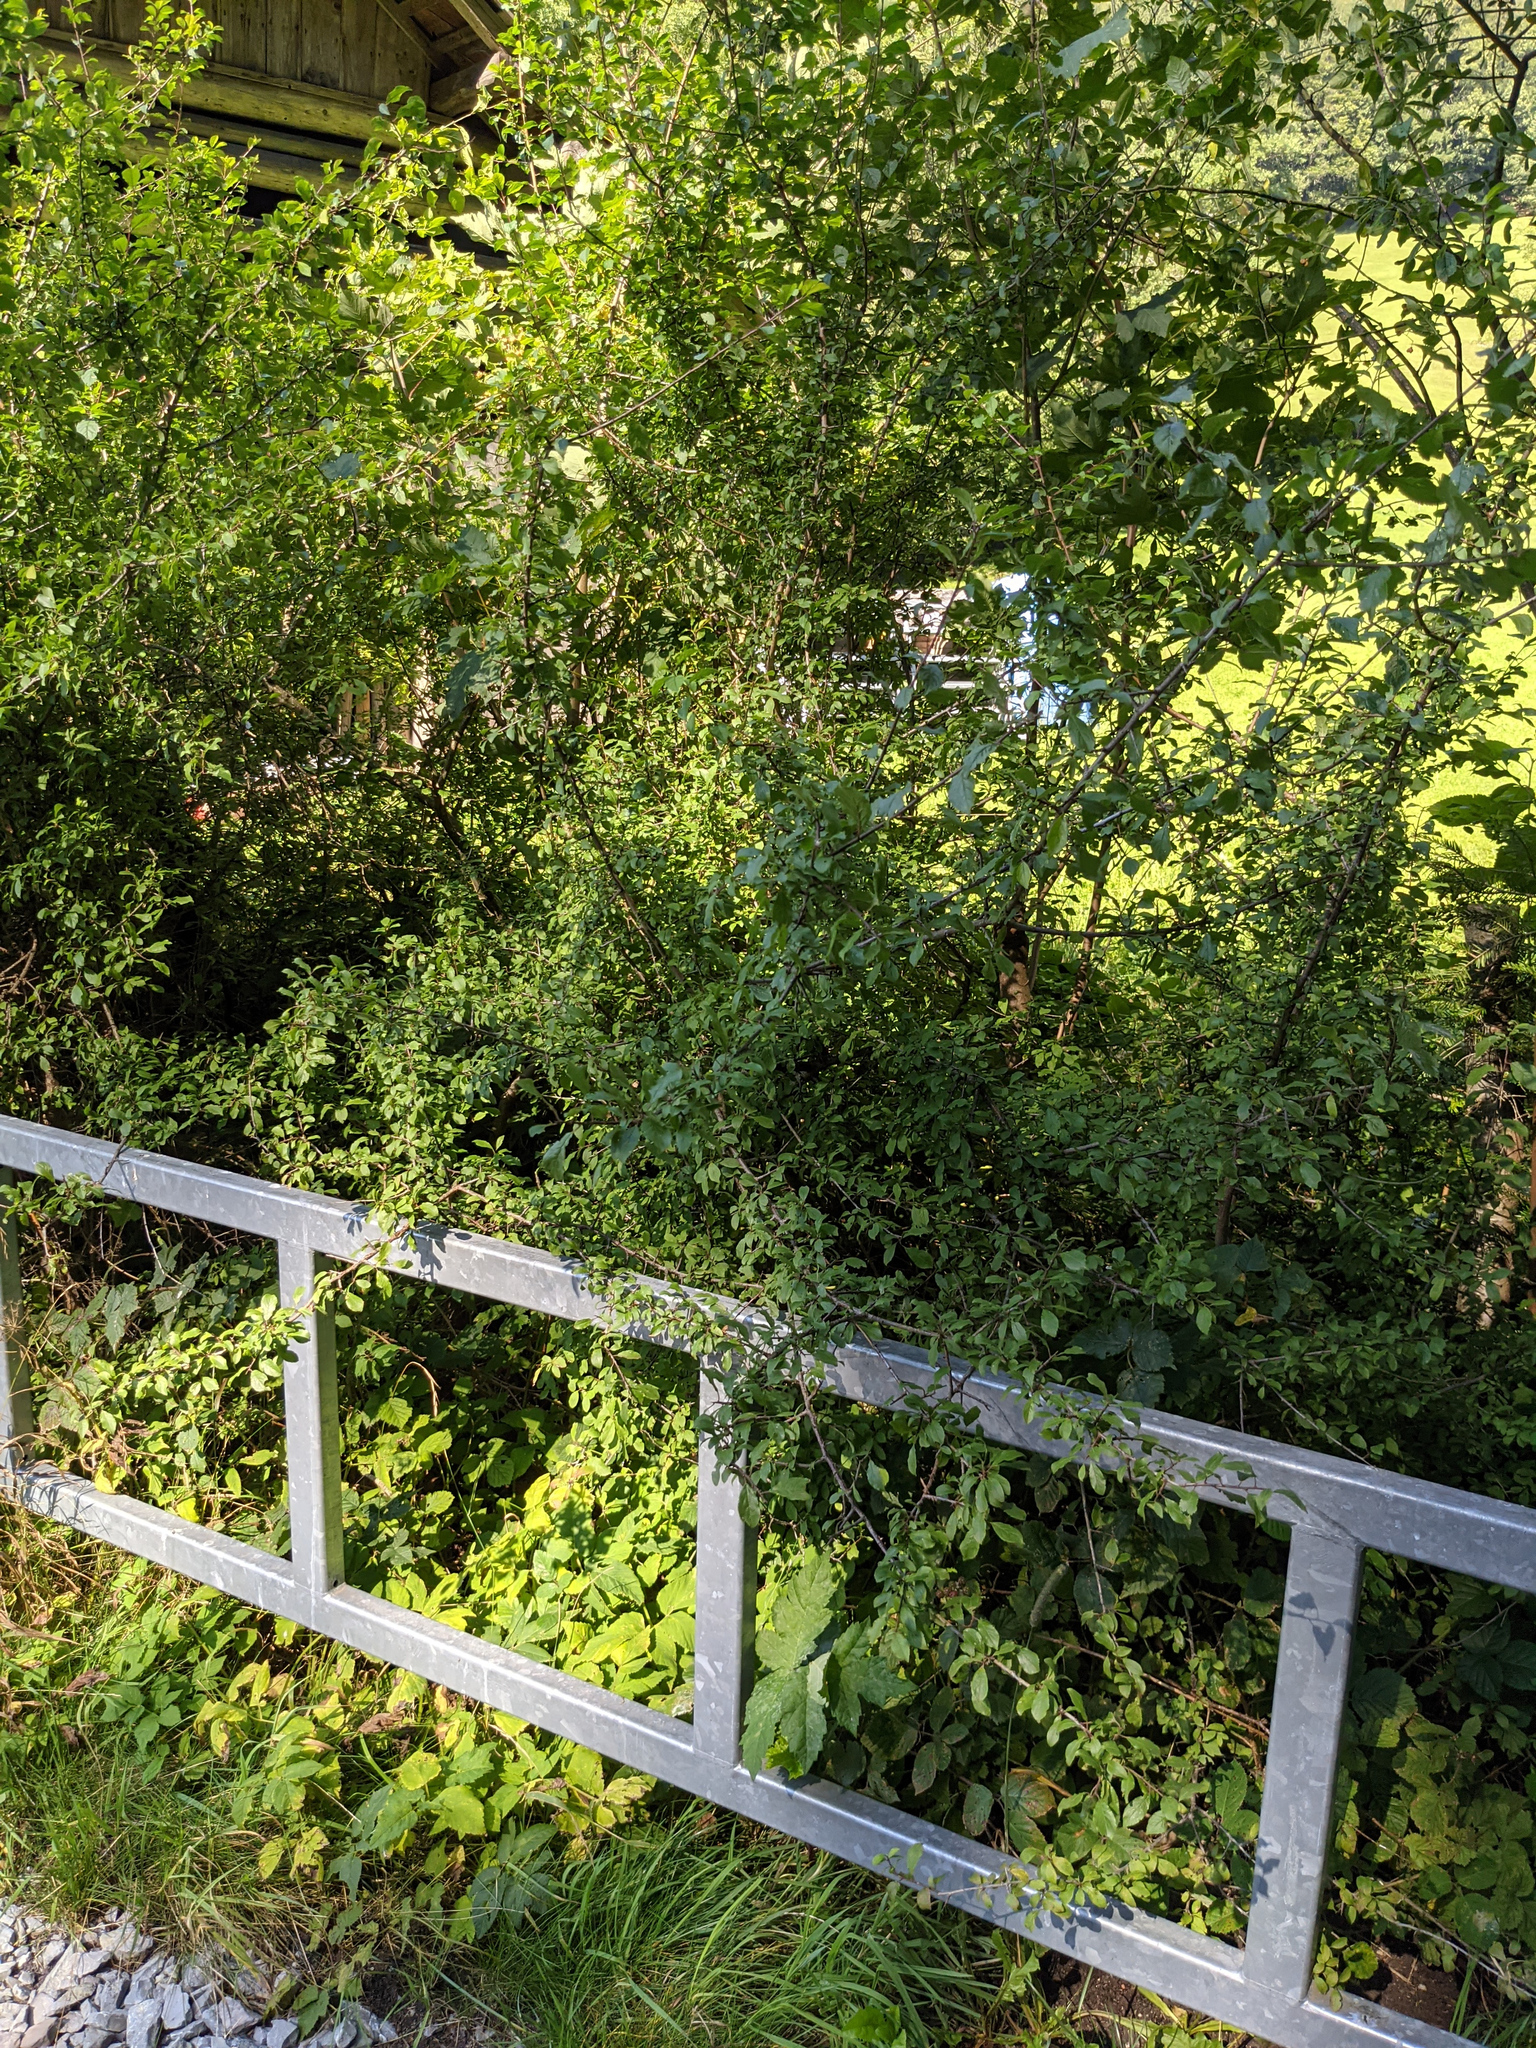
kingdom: Plantae
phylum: Tracheophyta
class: Magnoliopsida
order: Rosales
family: Rosaceae
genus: Prunus
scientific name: Prunus spinosa
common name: Blackthorn
